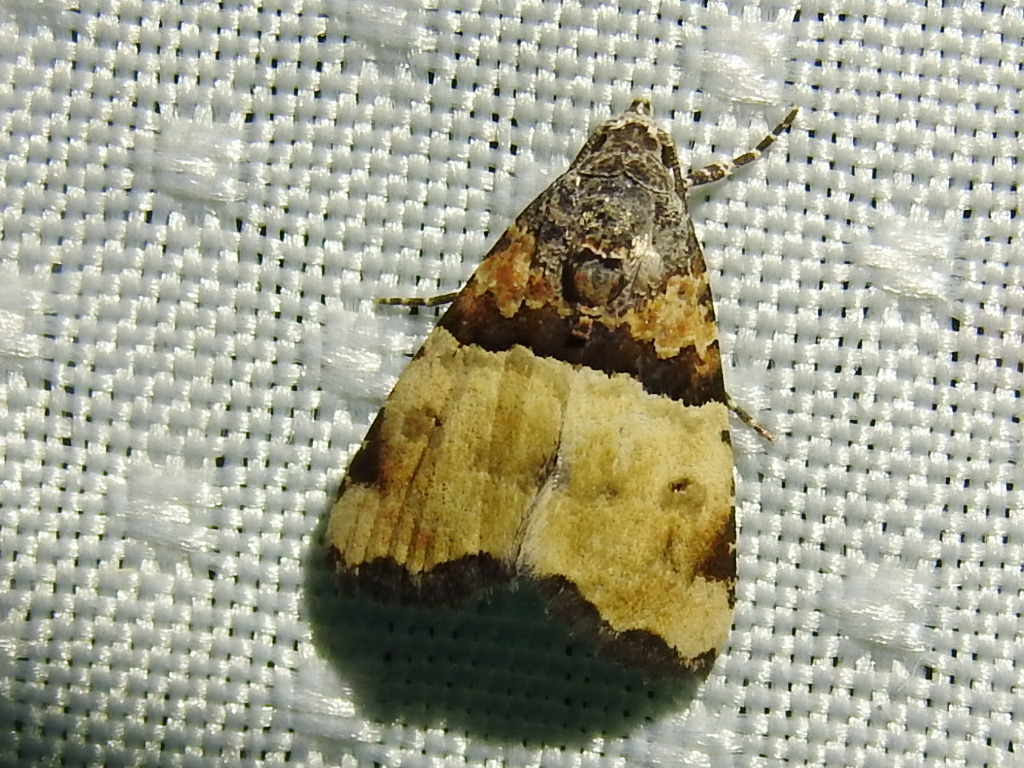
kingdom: Animalia
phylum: Arthropoda
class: Insecta
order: Lepidoptera
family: Noctuidae
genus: Cobubatha
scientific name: Cobubatha dividua
